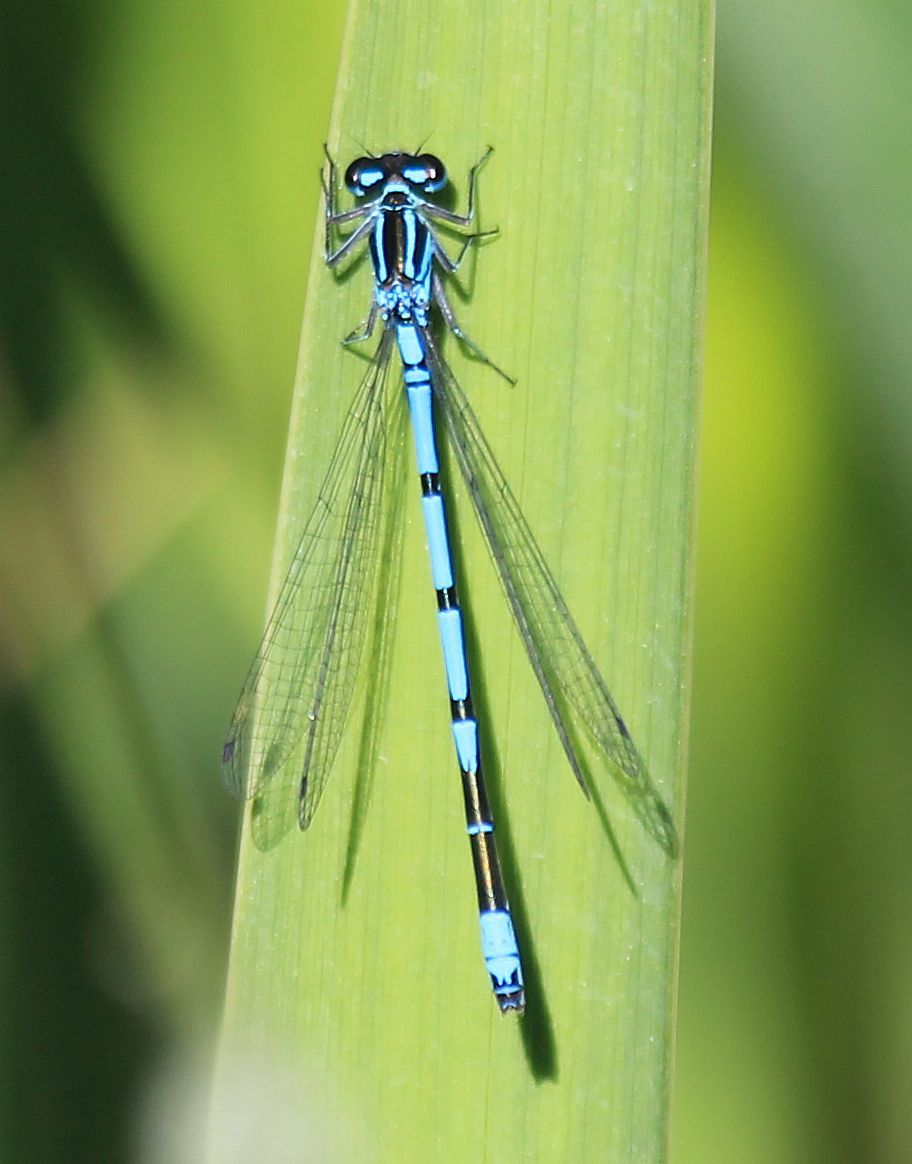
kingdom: Animalia
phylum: Arthropoda
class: Insecta
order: Odonata
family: Coenagrionidae
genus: Coenagrion
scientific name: Coenagrion puella
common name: Azure damselfly
